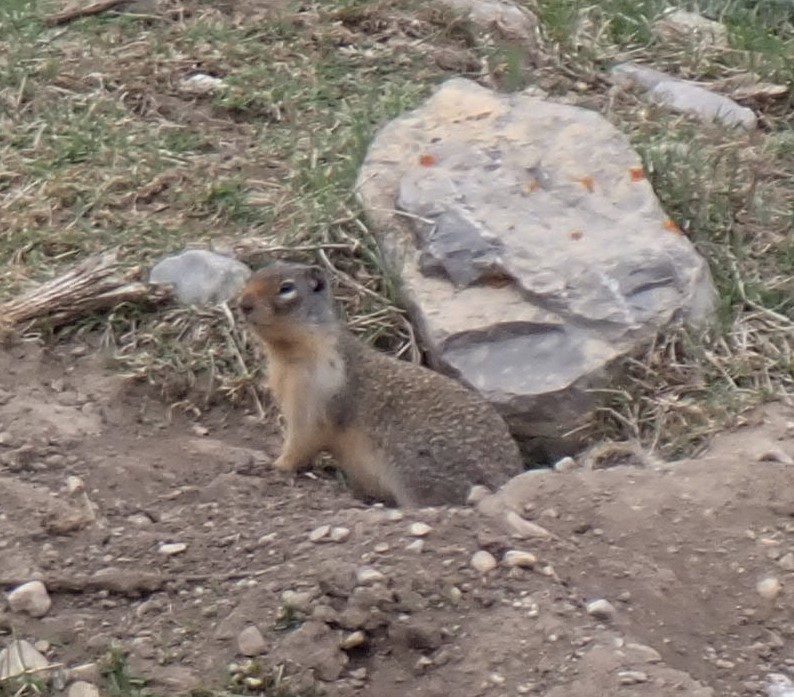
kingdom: Animalia
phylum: Chordata
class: Mammalia
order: Rodentia
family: Sciuridae
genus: Urocitellus
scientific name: Urocitellus columbianus
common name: Columbian ground squirrel
